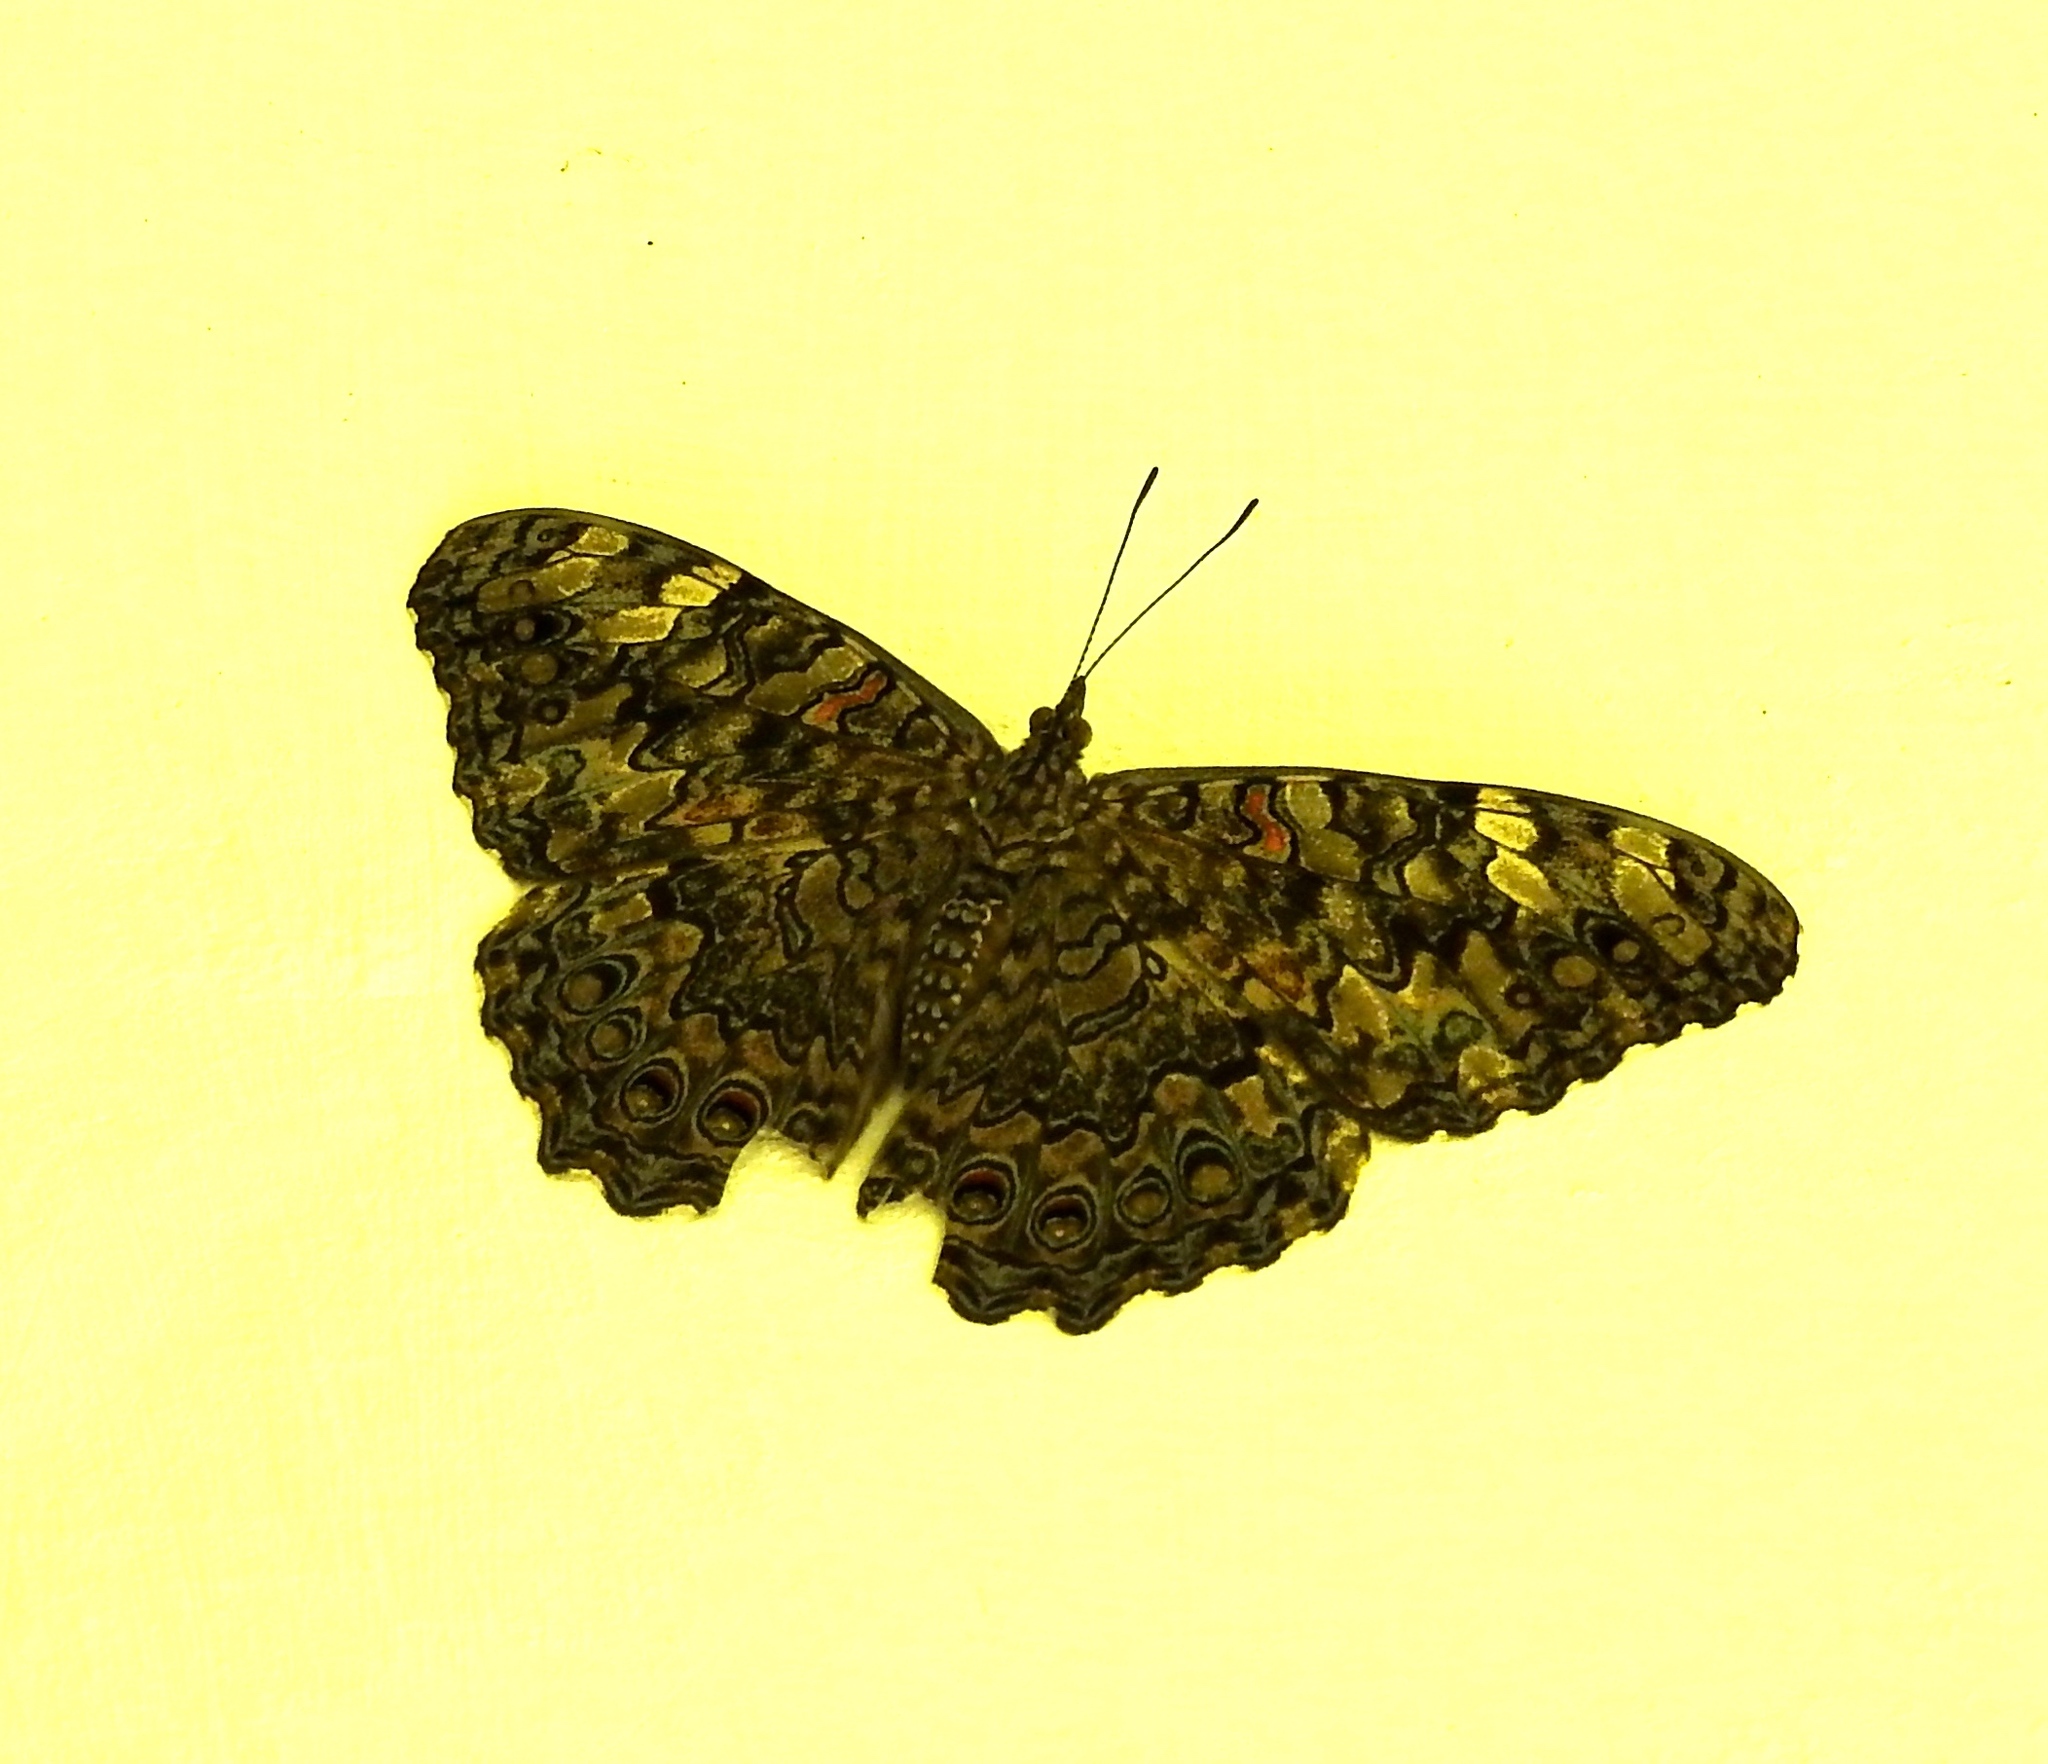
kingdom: Animalia
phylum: Arthropoda
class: Insecta
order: Lepidoptera
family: Nymphalidae
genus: Hamadryas
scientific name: Hamadryas februa
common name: Gray cracker
